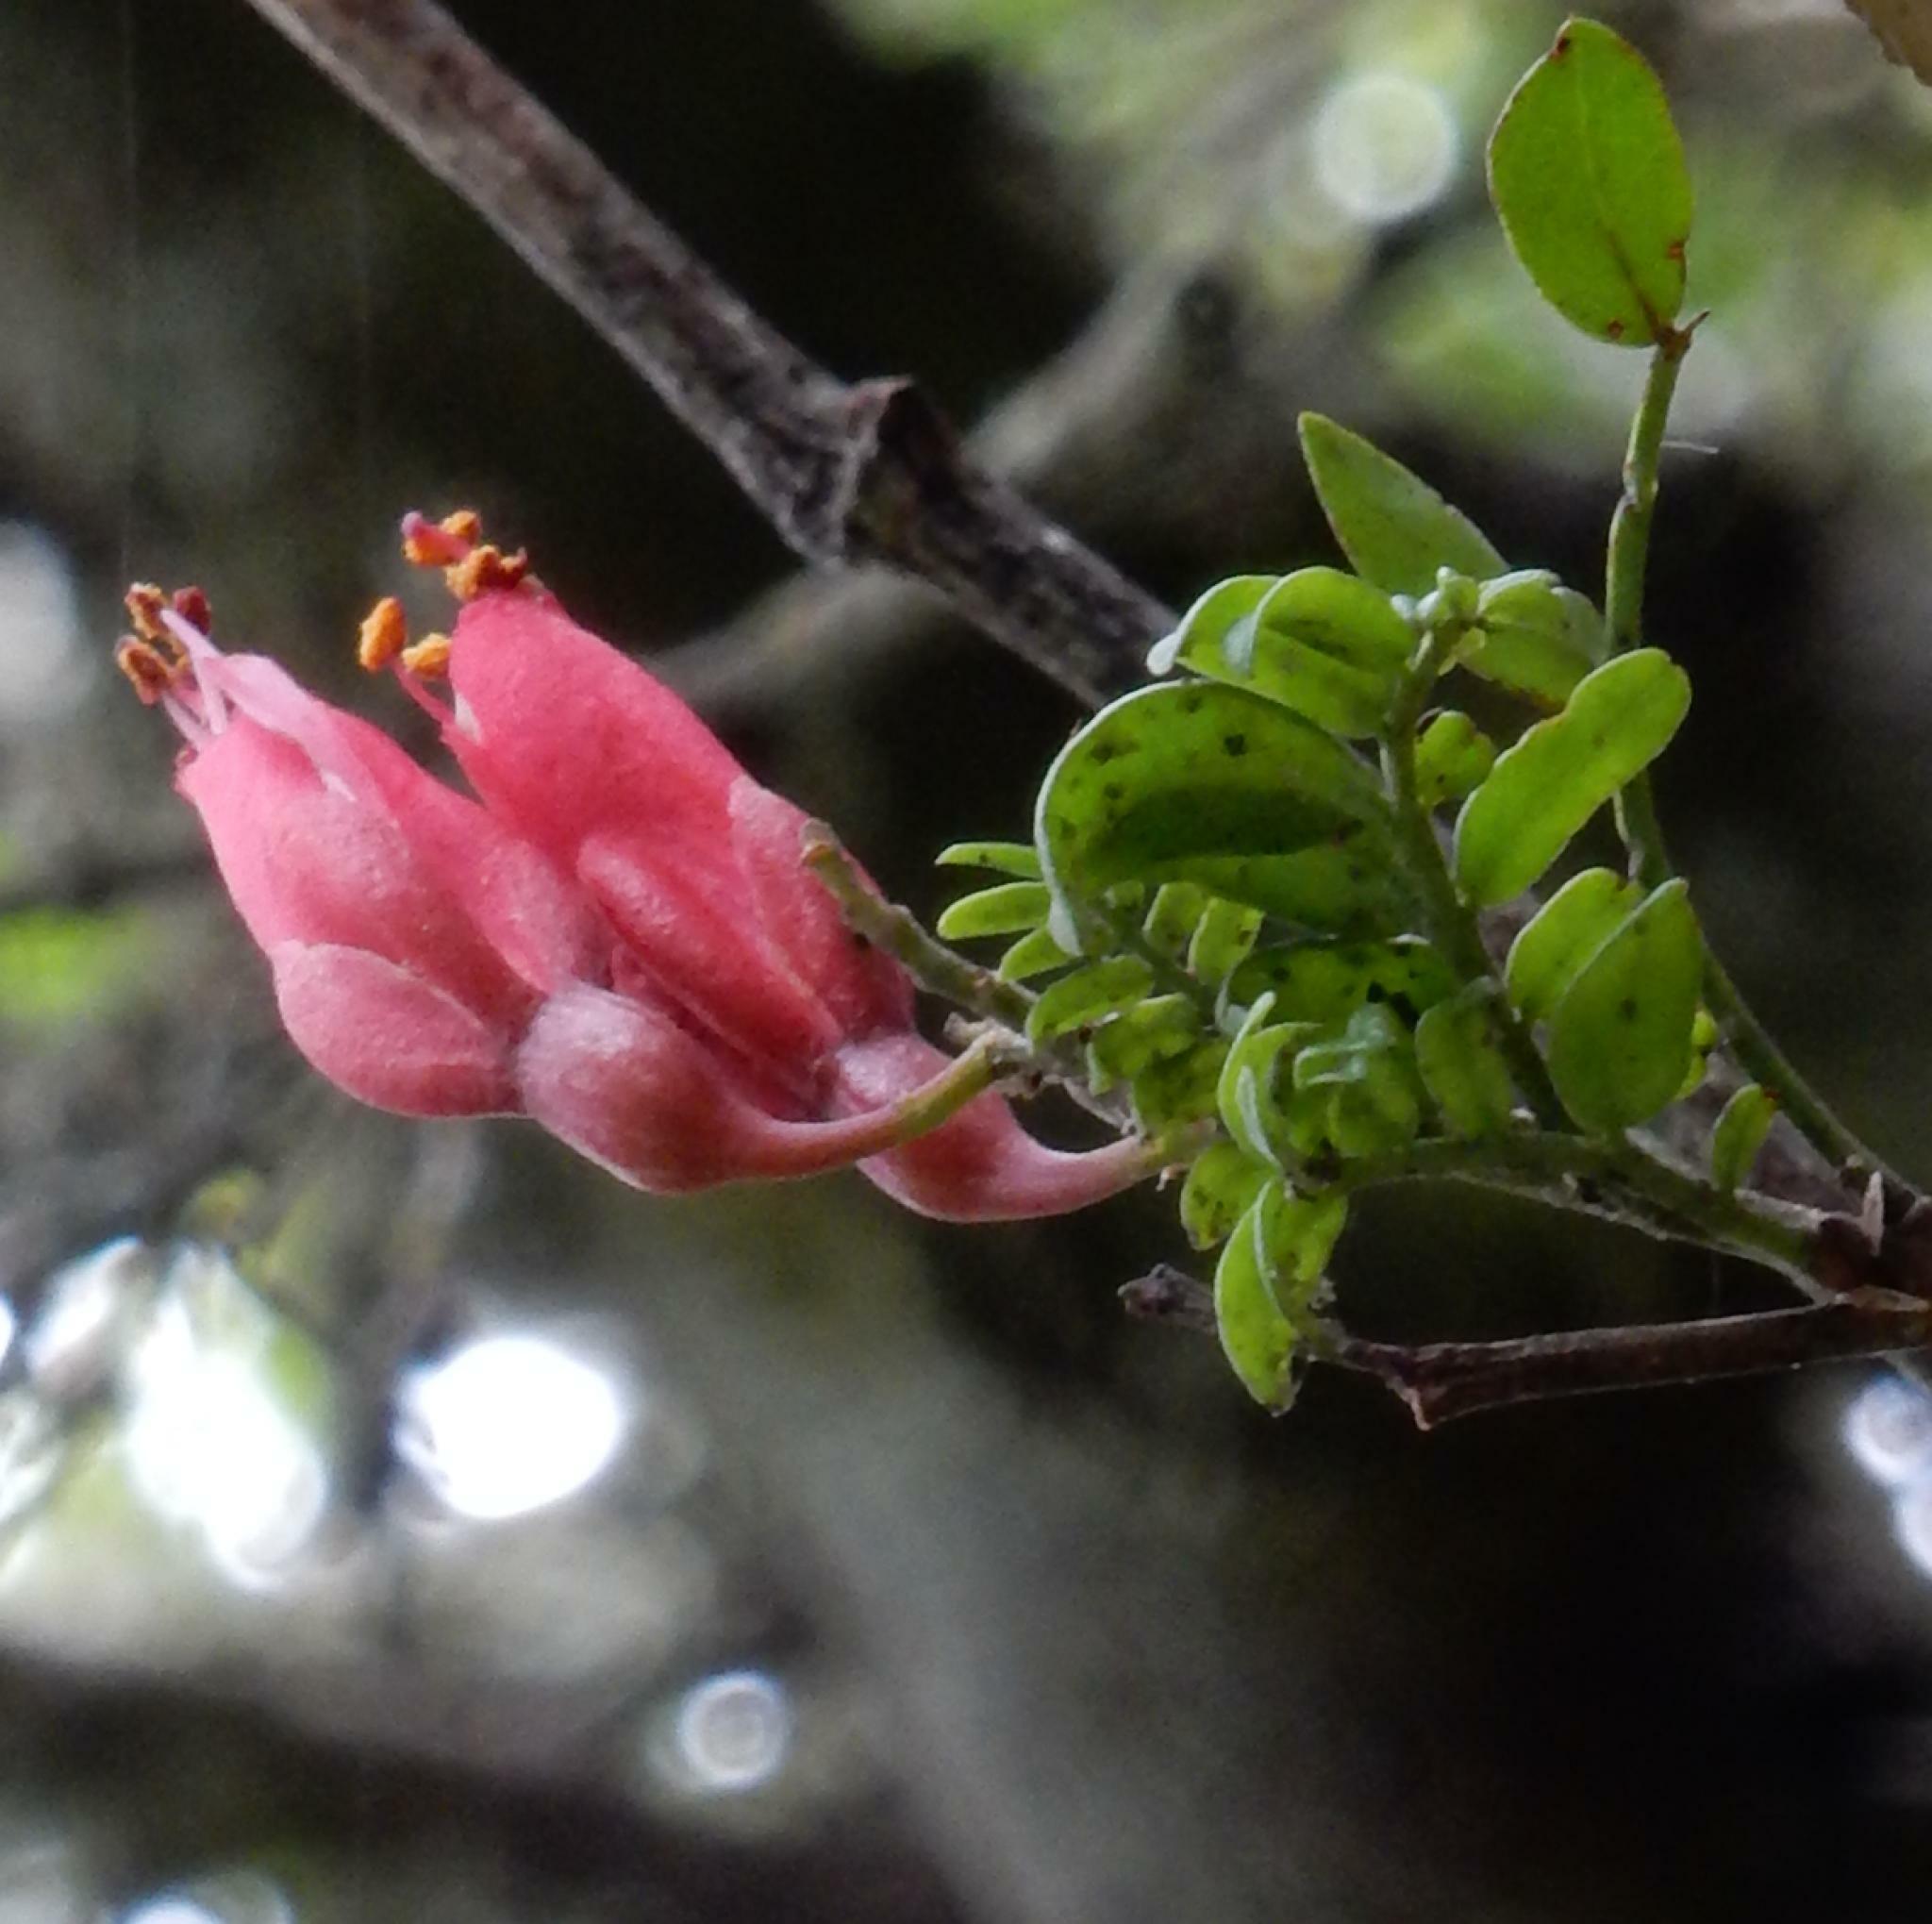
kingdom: Plantae
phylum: Tracheophyta
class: Magnoliopsida
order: Fabales
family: Fabaceae
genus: Schotia
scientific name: Schotia afra
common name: Hottentot's bean
